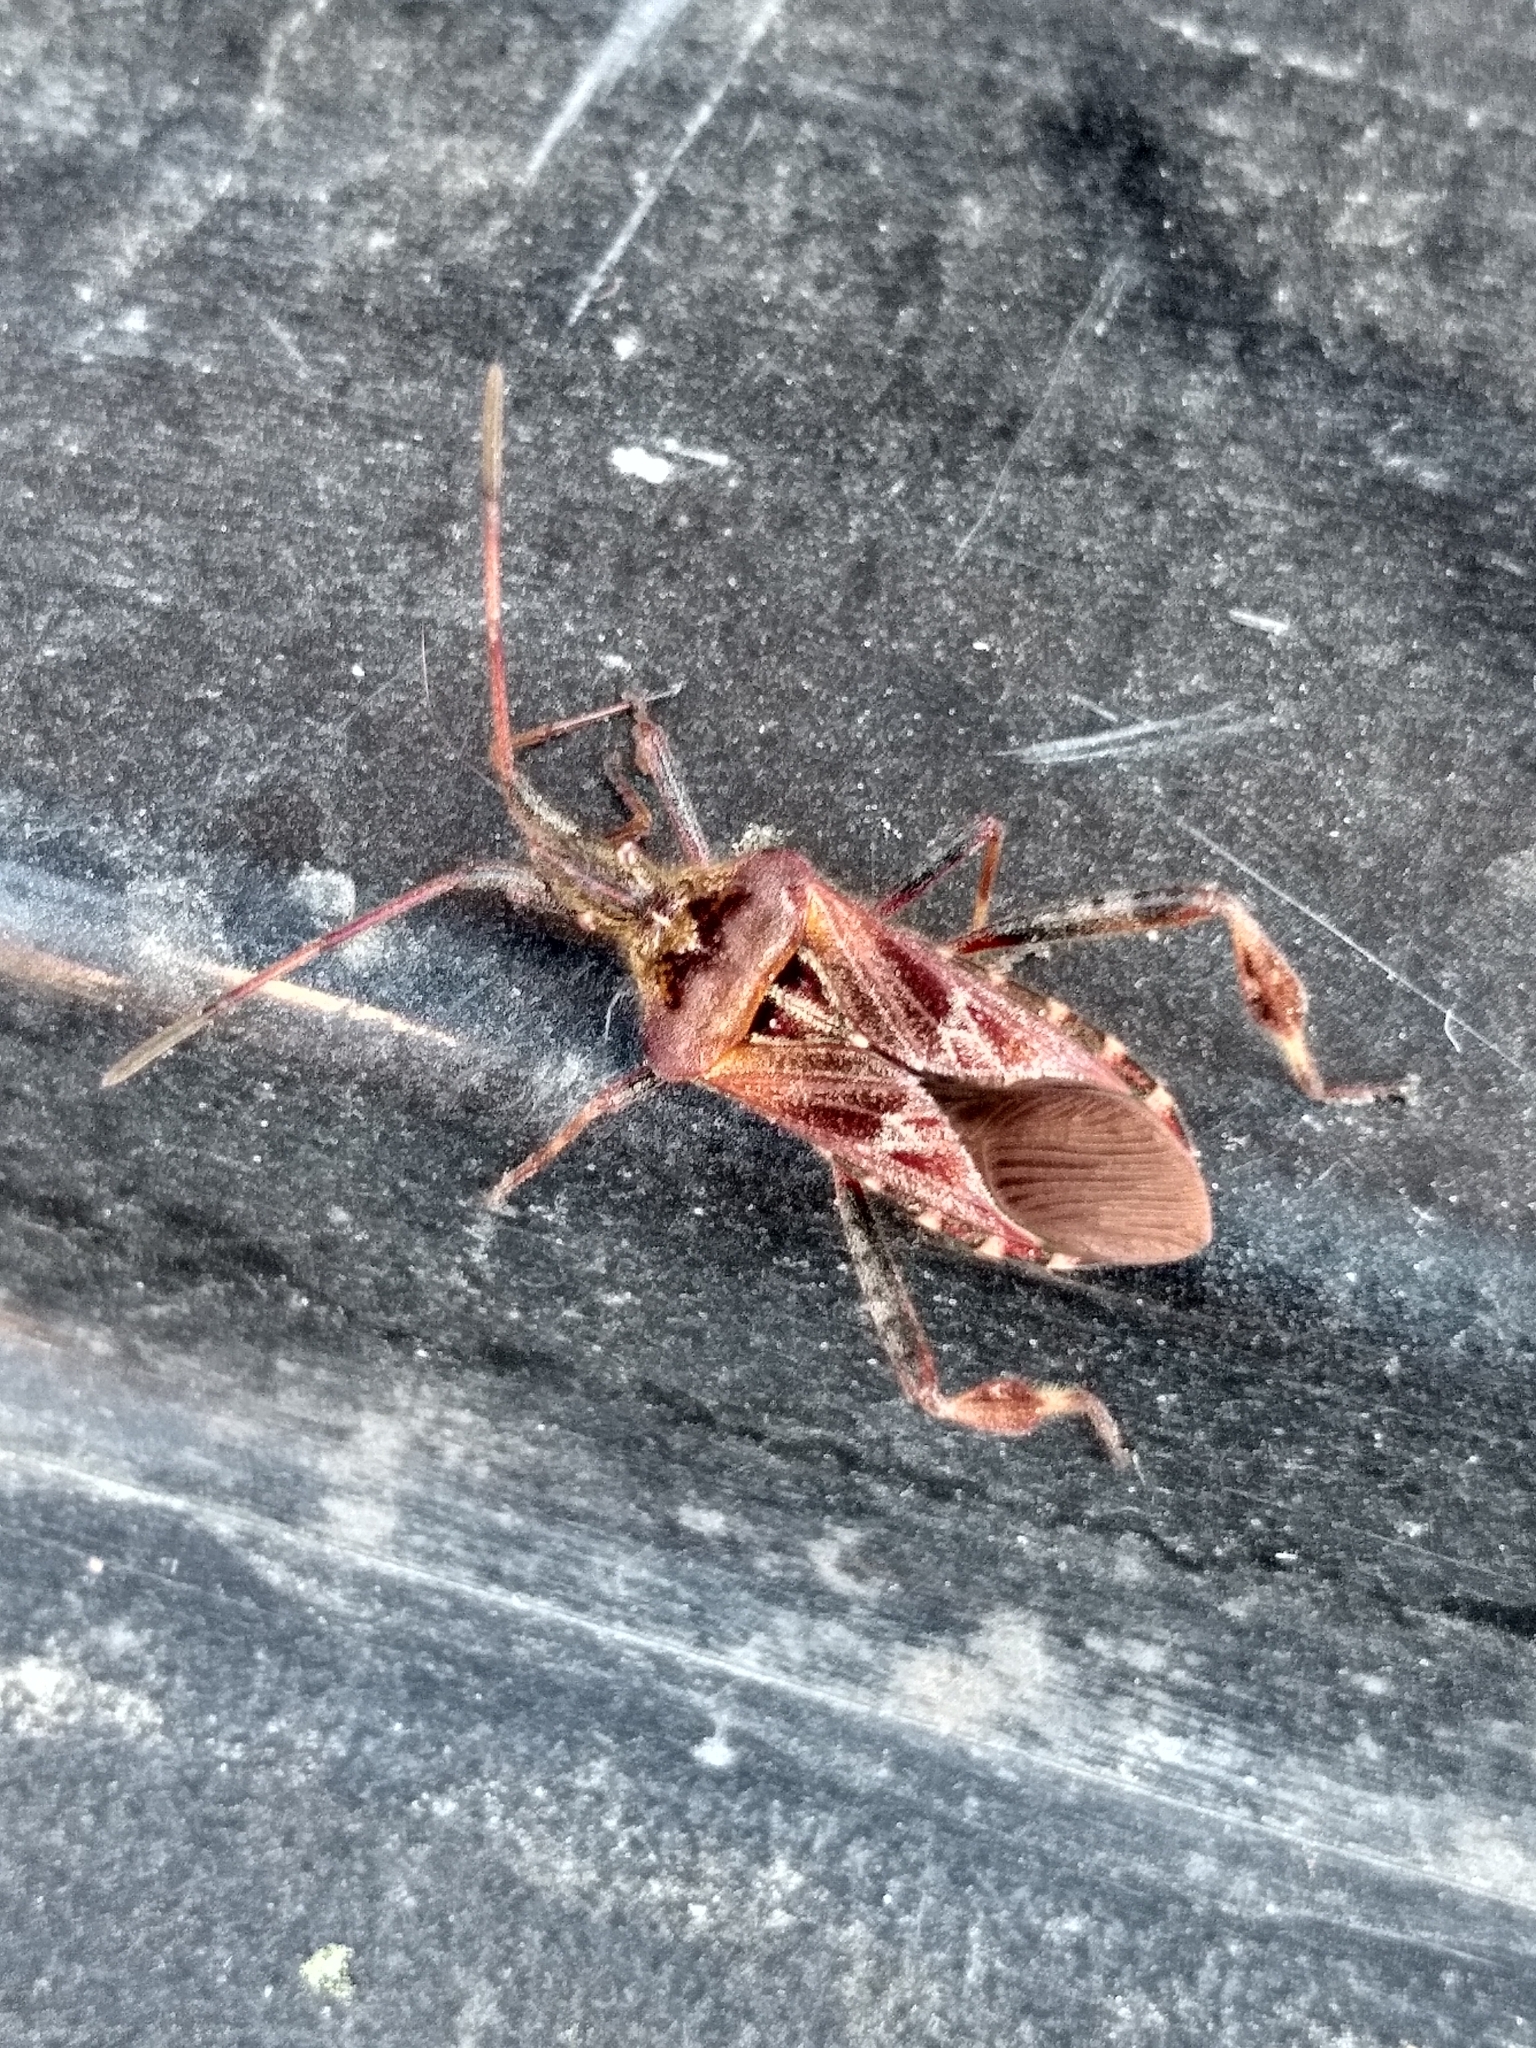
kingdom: Animalia
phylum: Arthropoda
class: Insecta
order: Hemiptera
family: Coreidae
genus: Leptoglossus
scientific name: Leptoglossus occidentalis
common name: Western conifer-seed bug
